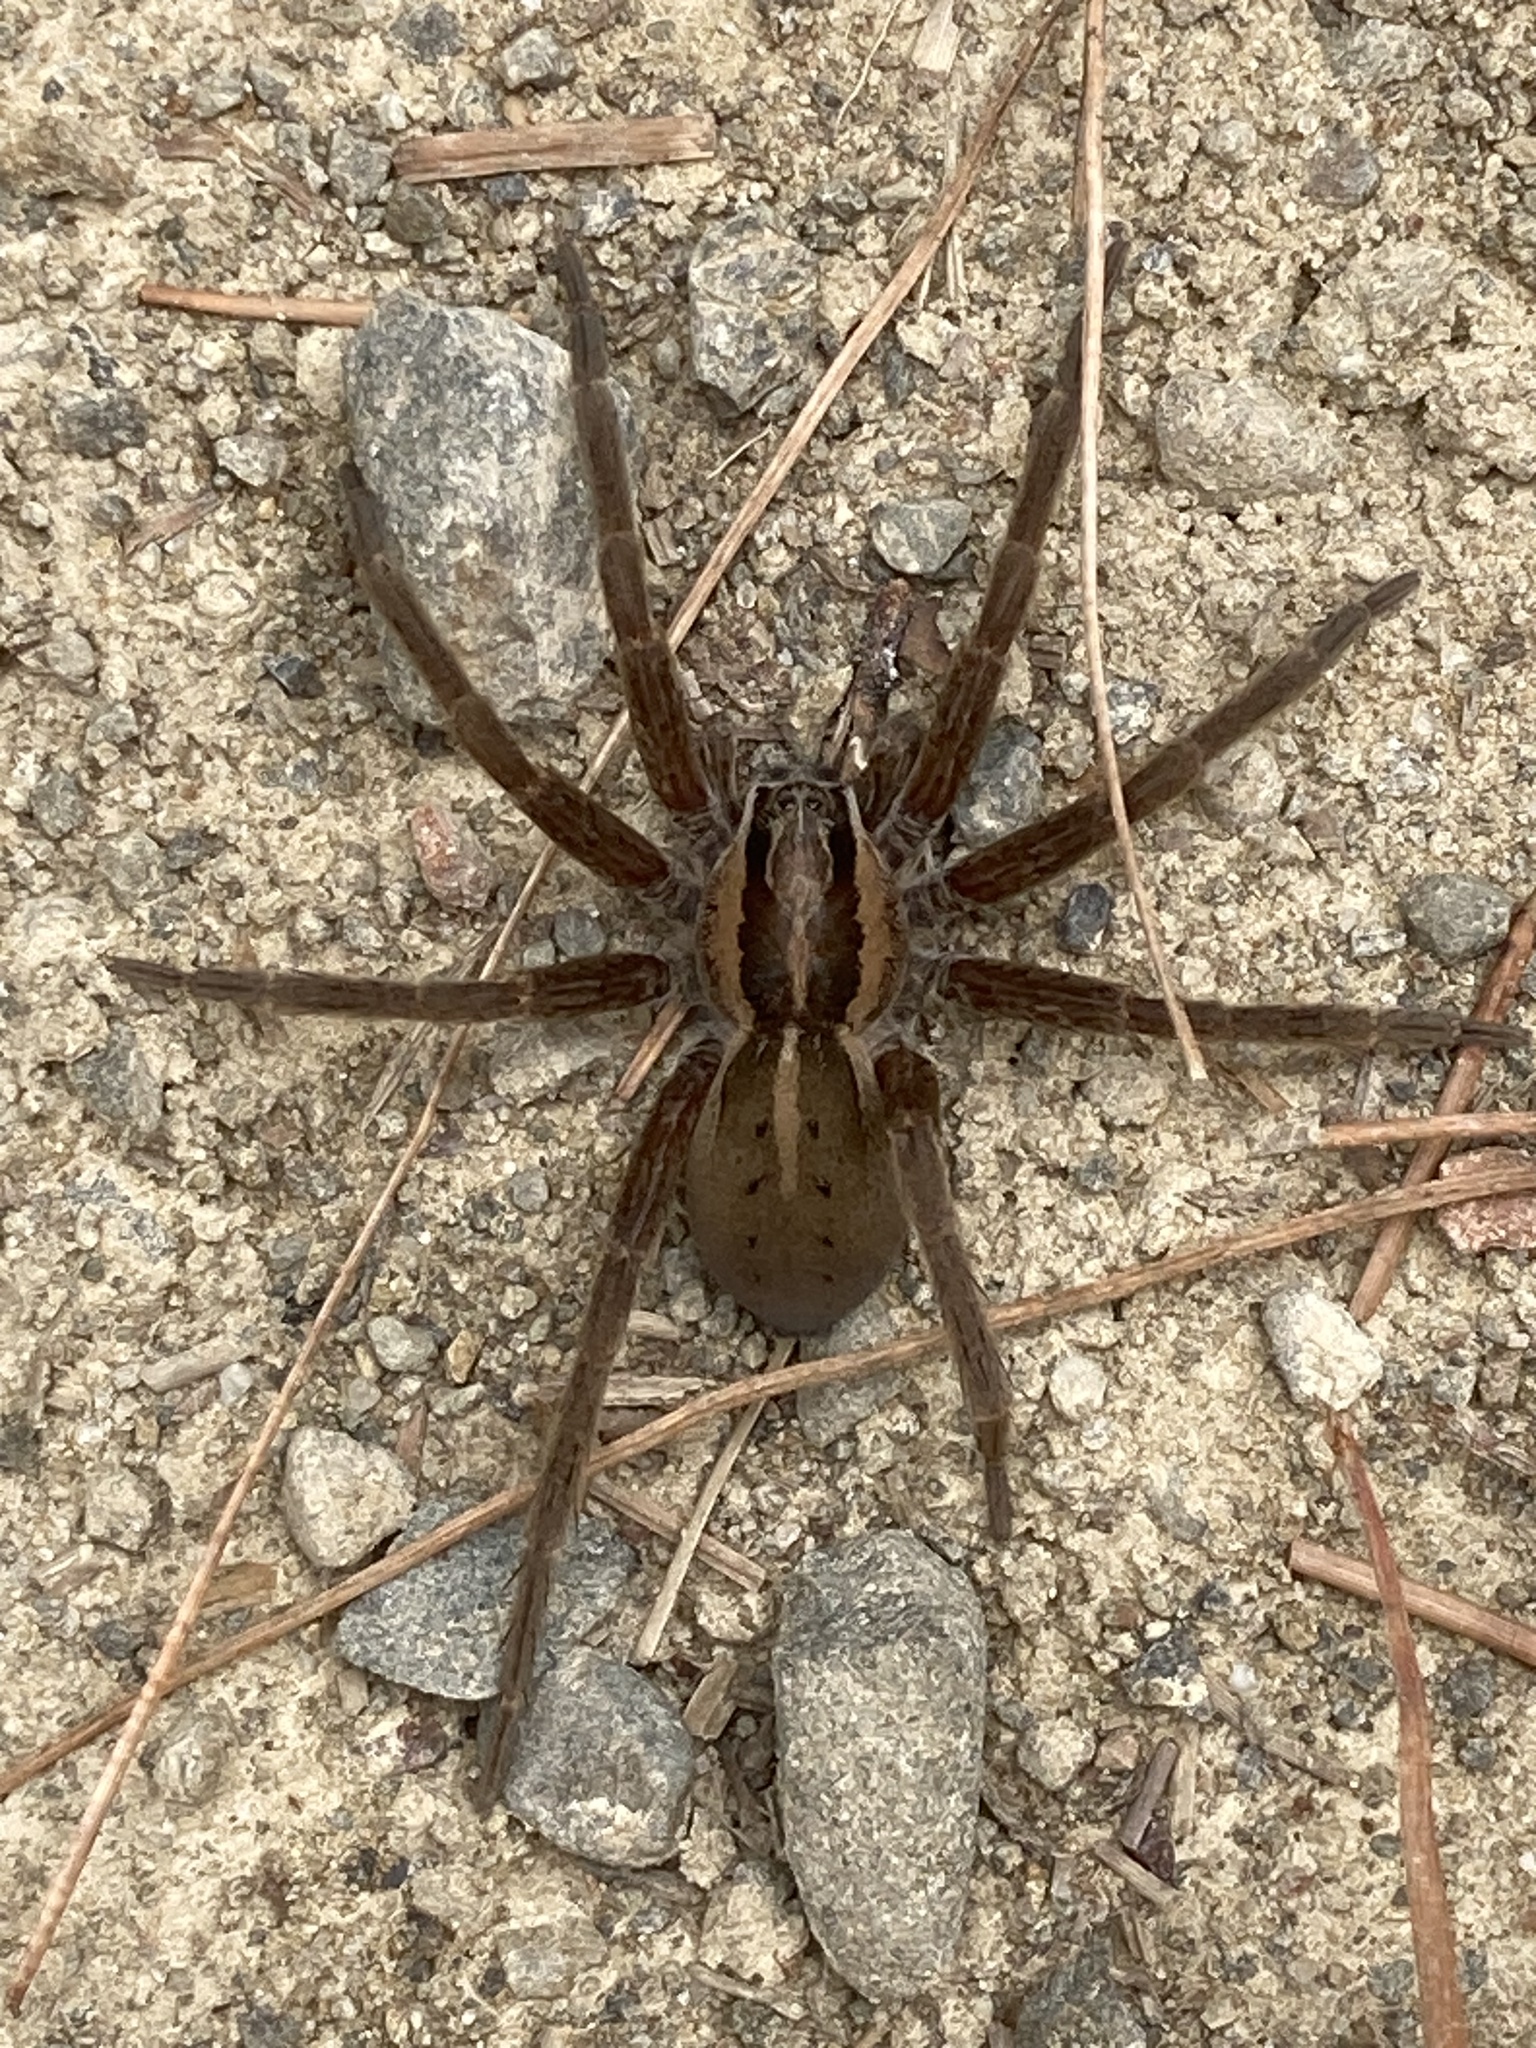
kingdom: Animalia
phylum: Arthropoda
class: Arachnida
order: Araneae
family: Pisauridae
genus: Dolomedes
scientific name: Dolomedes minor
